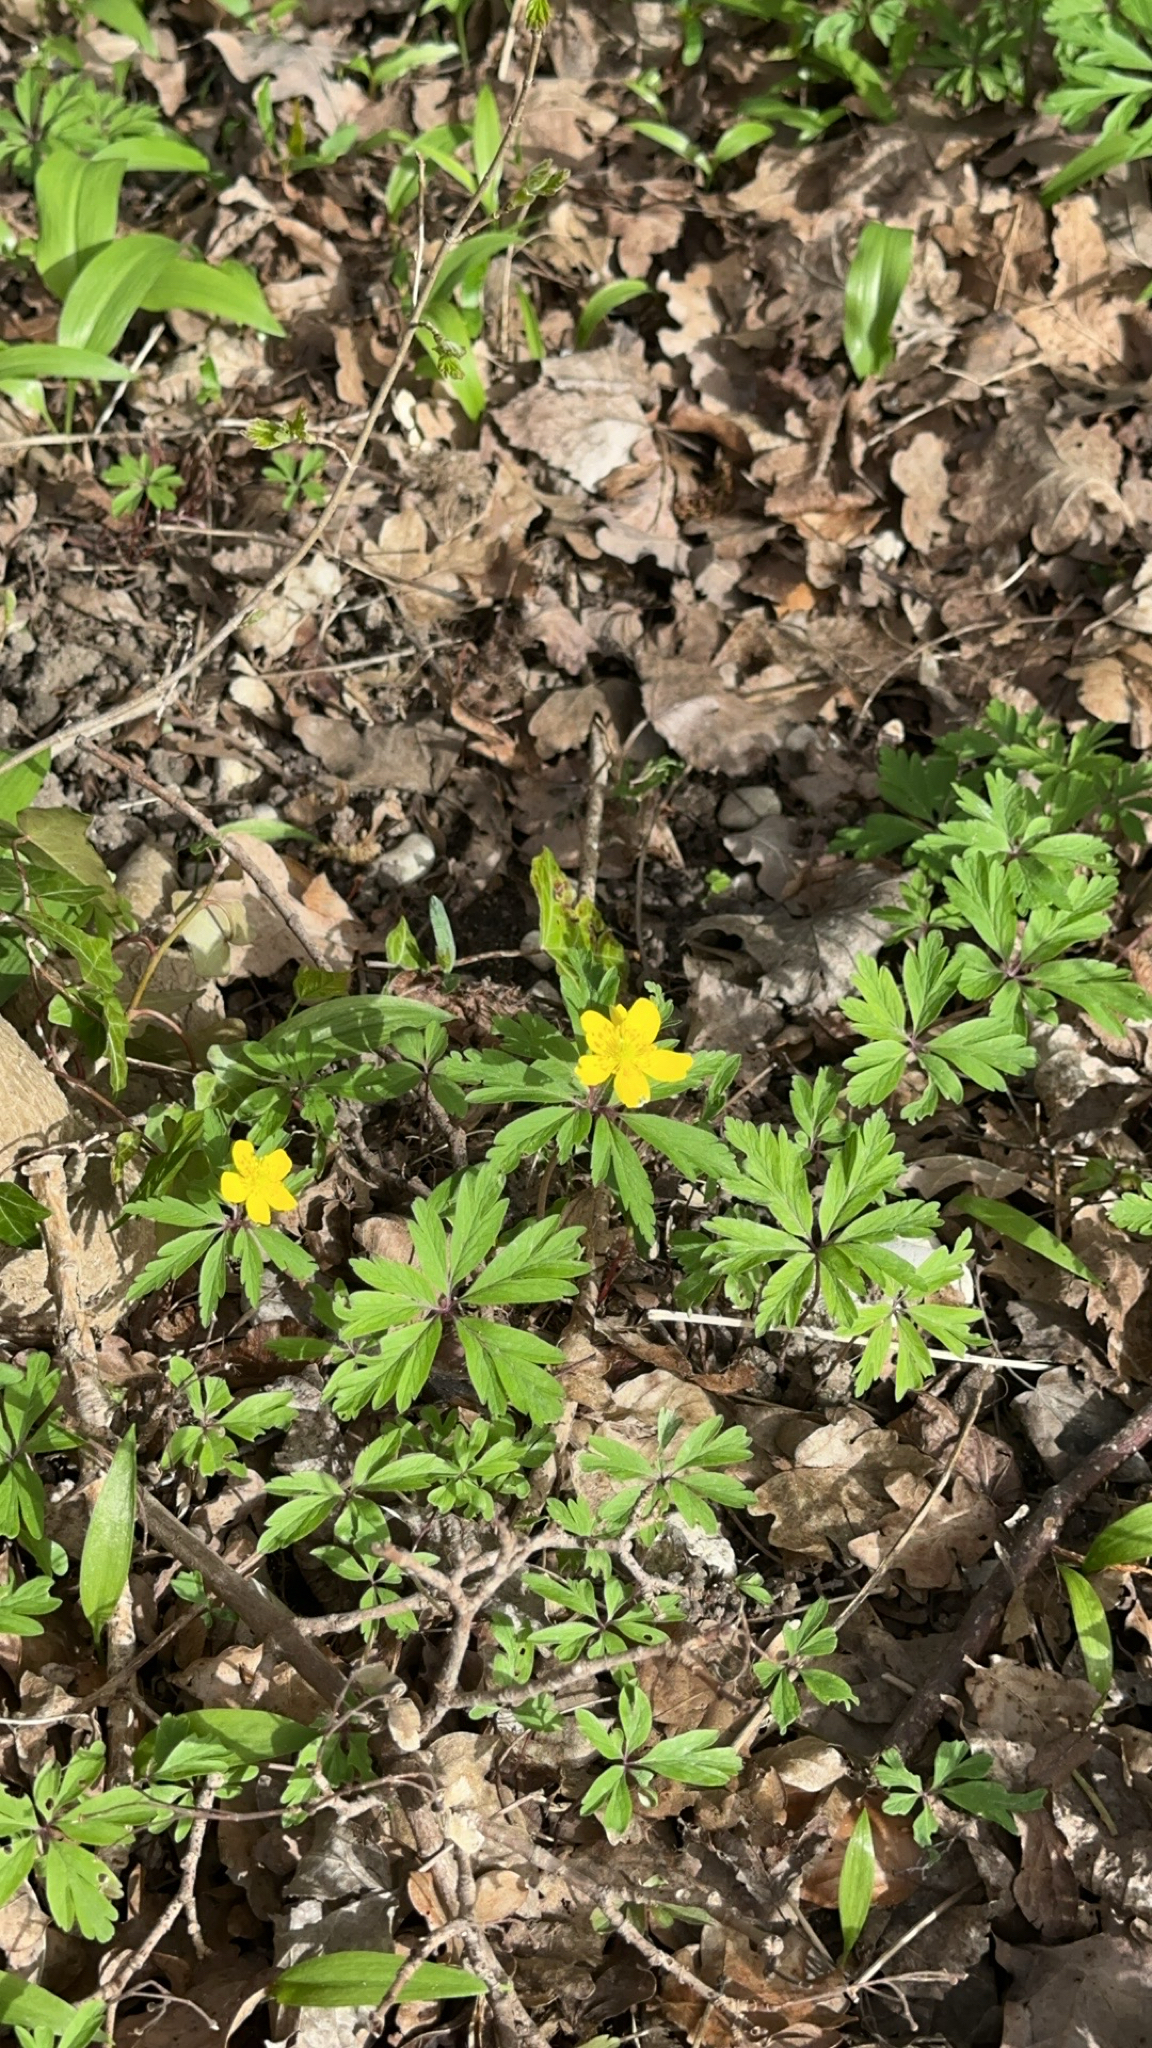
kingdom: Plantae
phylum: Tracheophyta
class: Magnoliopsida
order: Ranunculales
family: Ranunculaceae
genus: Anemone
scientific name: Anemone ranunculoides
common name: Yellow anemone
